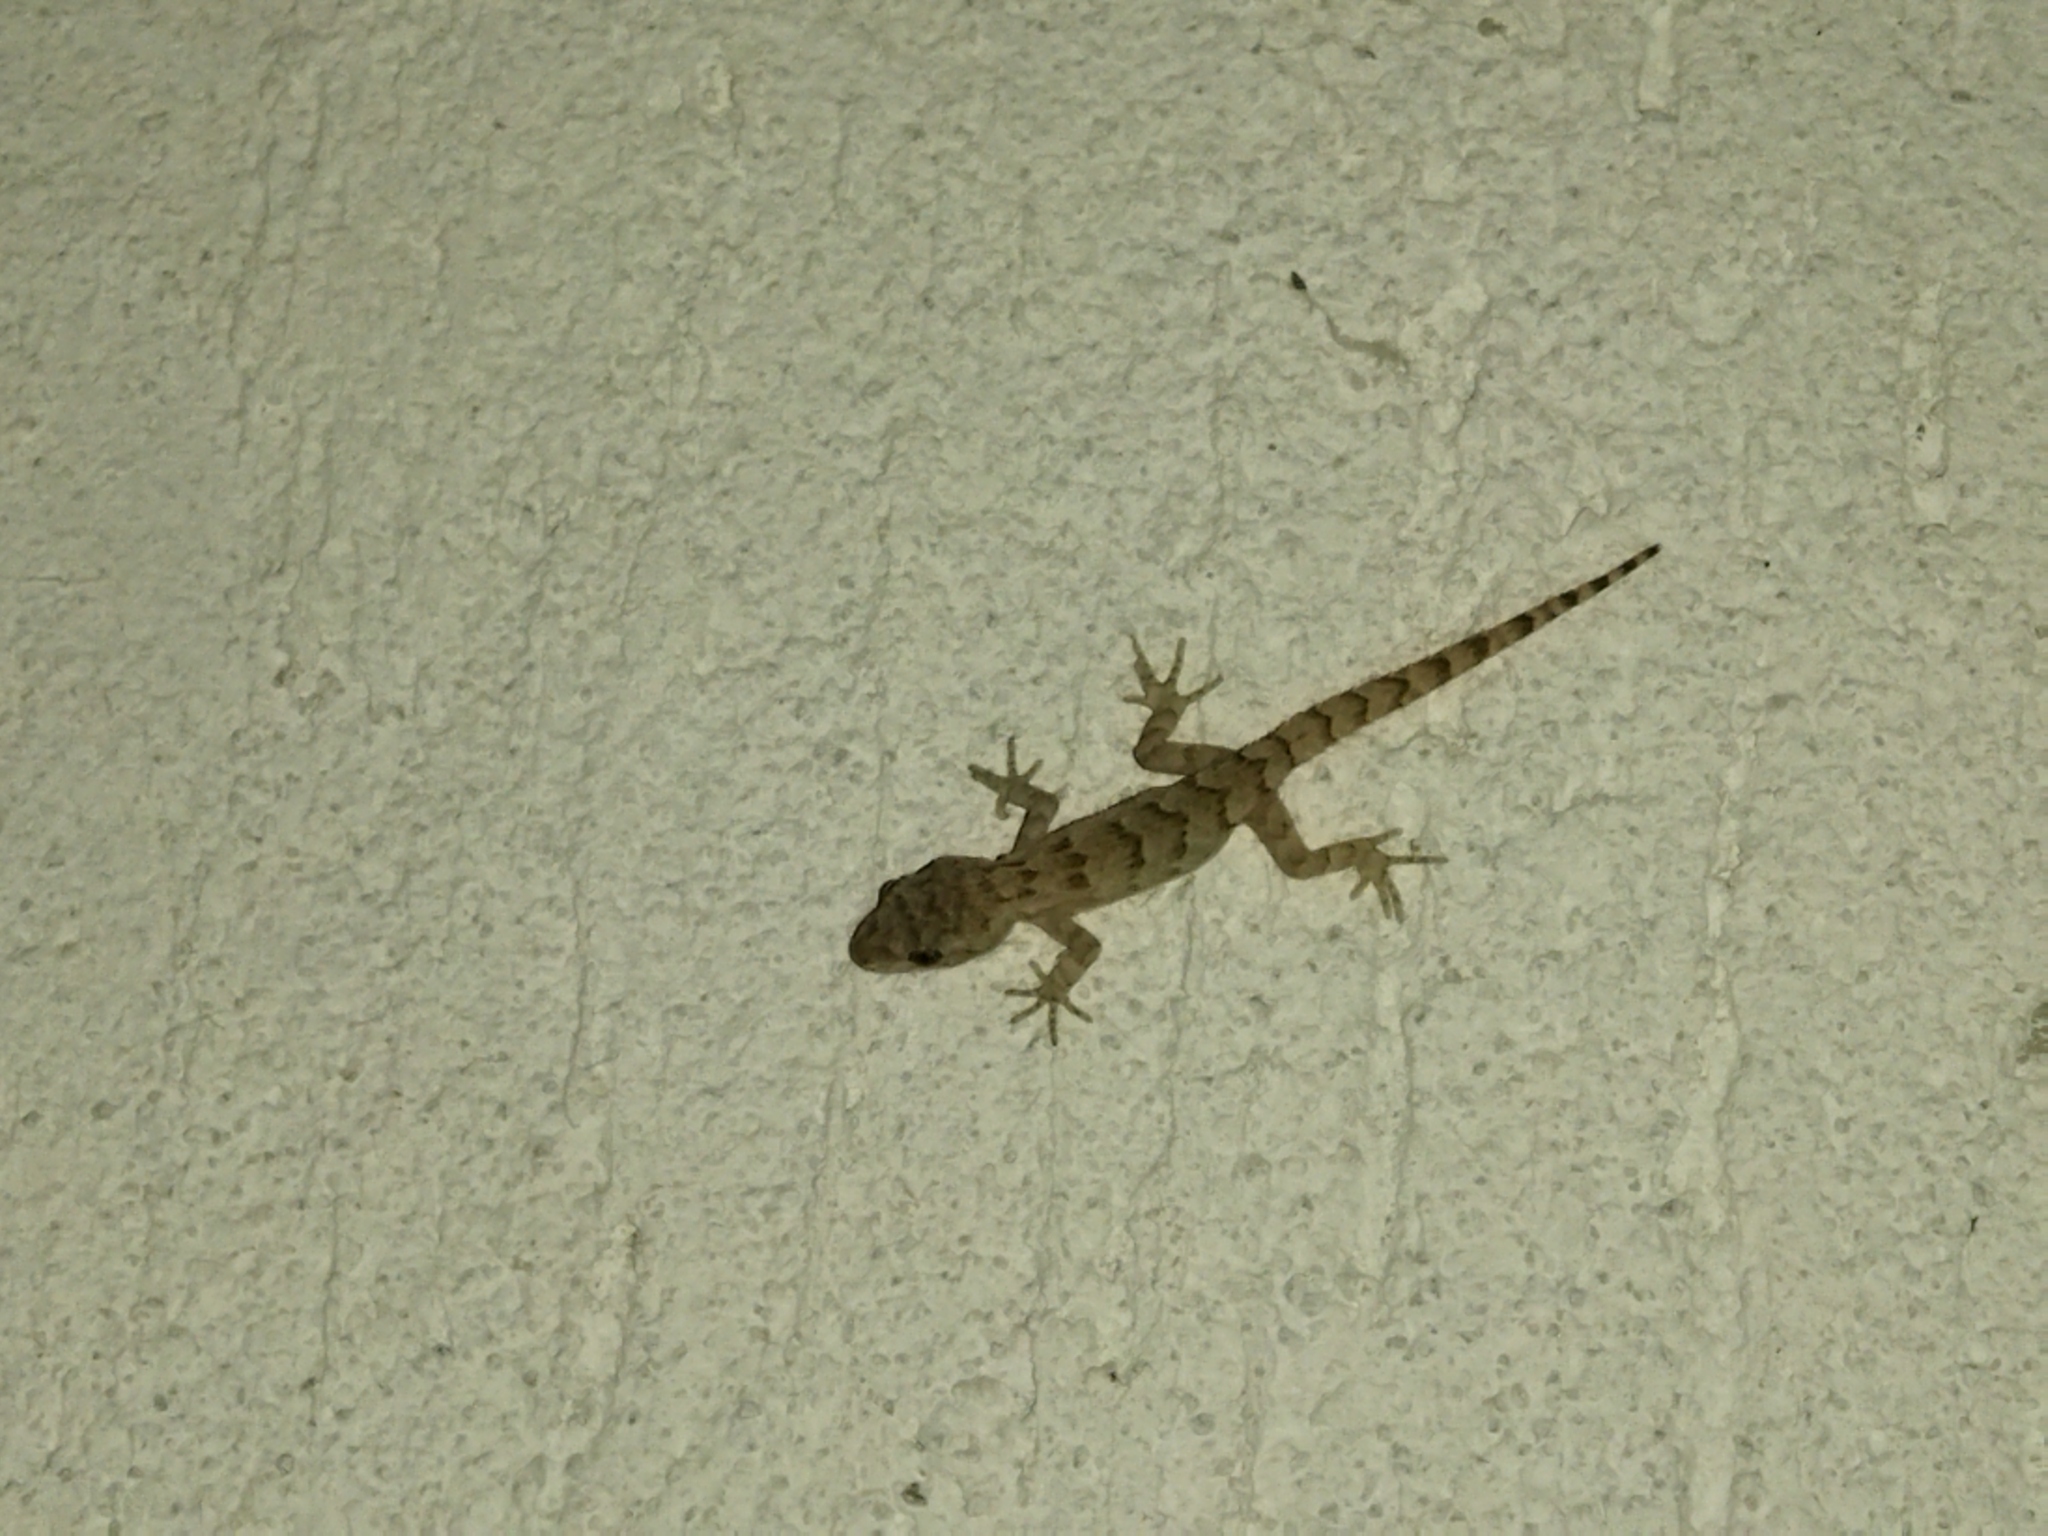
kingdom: Animalia
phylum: Chordata
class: Squamata
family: Gekkonidae
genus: Mediodactylus
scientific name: Mediodactylus kotschyi
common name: Kotschy's gecko
